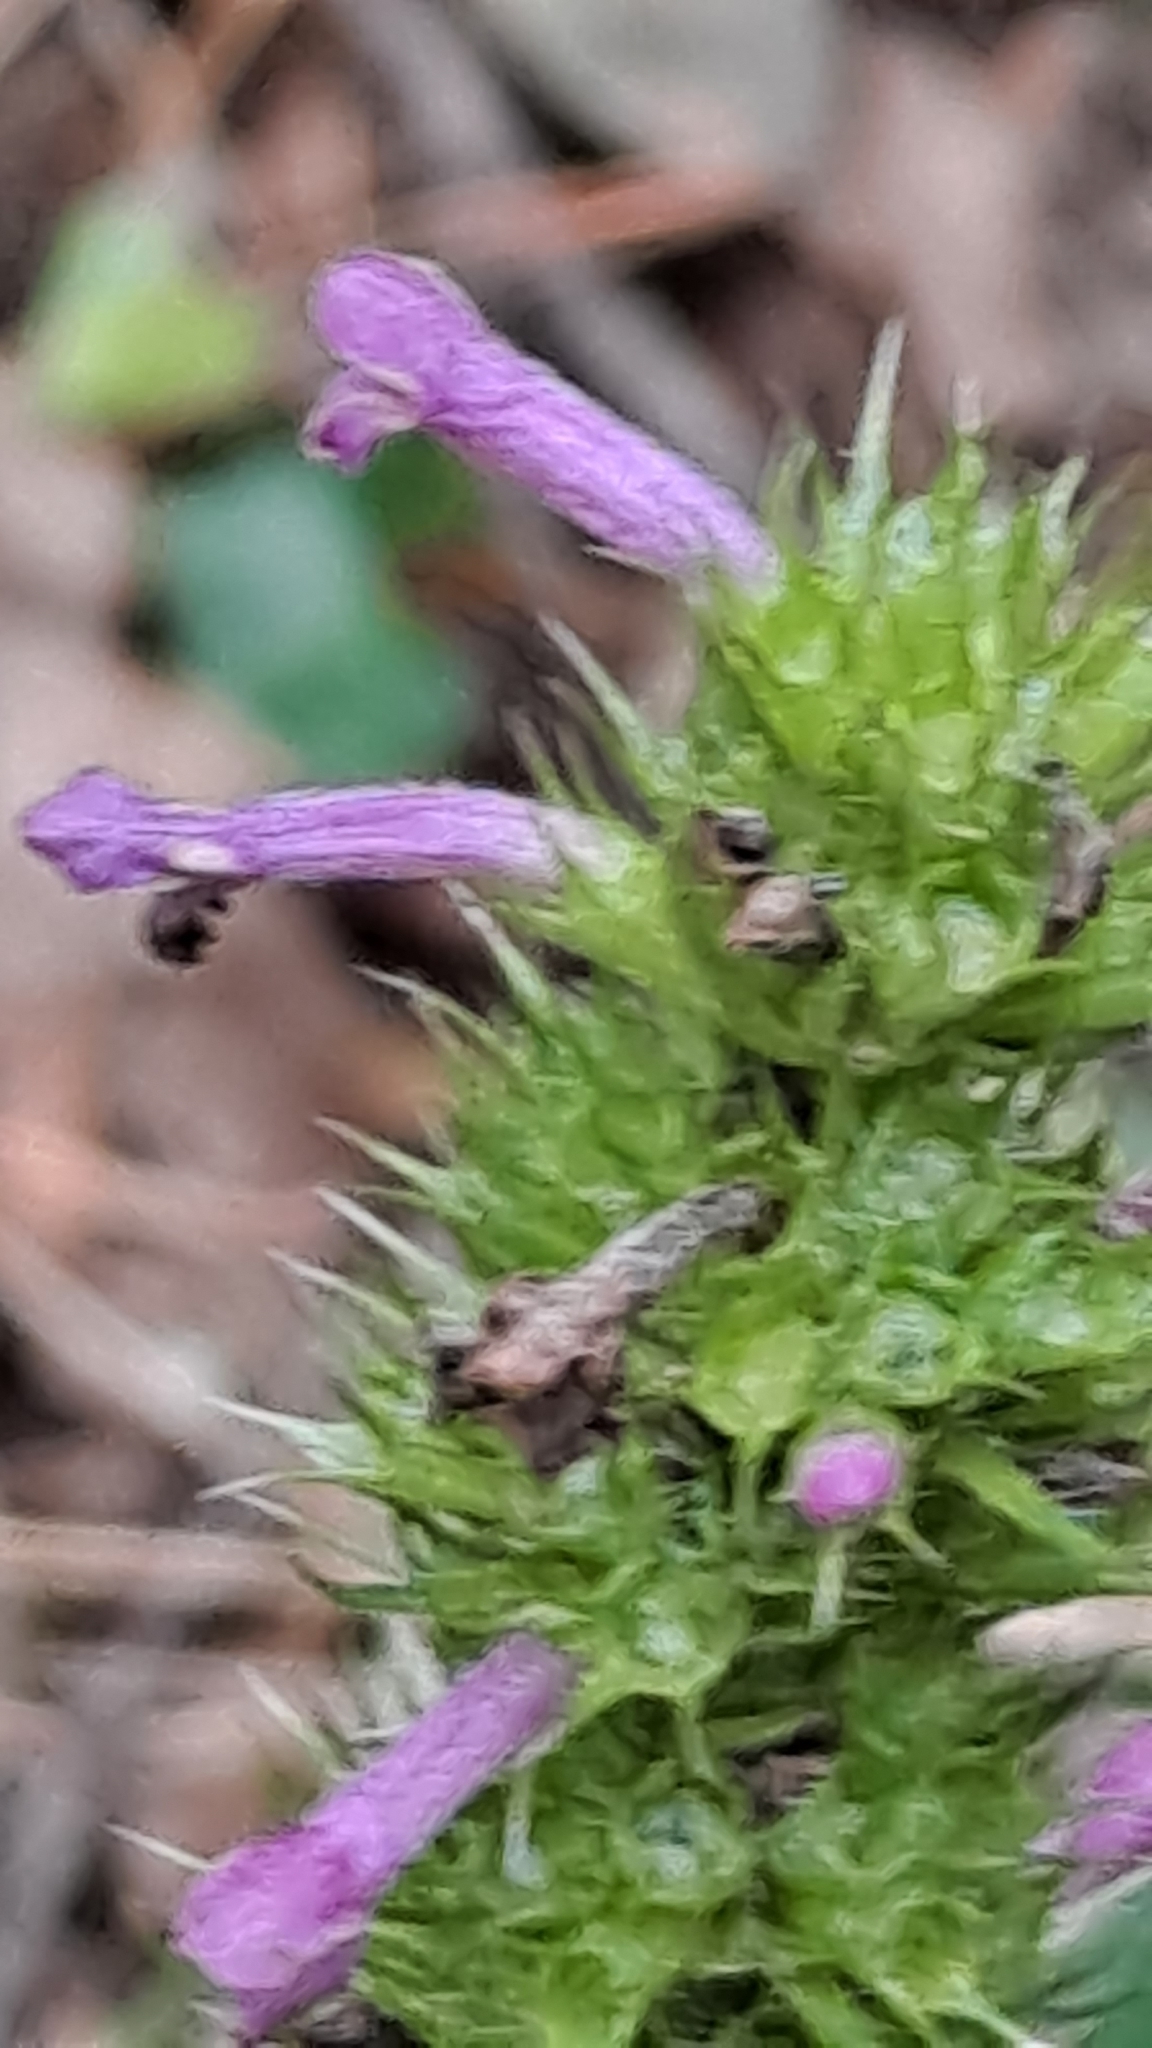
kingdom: Plantae
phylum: Tracheophyta
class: Magnoliopsida
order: Lamiales
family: Lamiaceae
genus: Betonica
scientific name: Betonica officinalis
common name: Bishop's-wort
